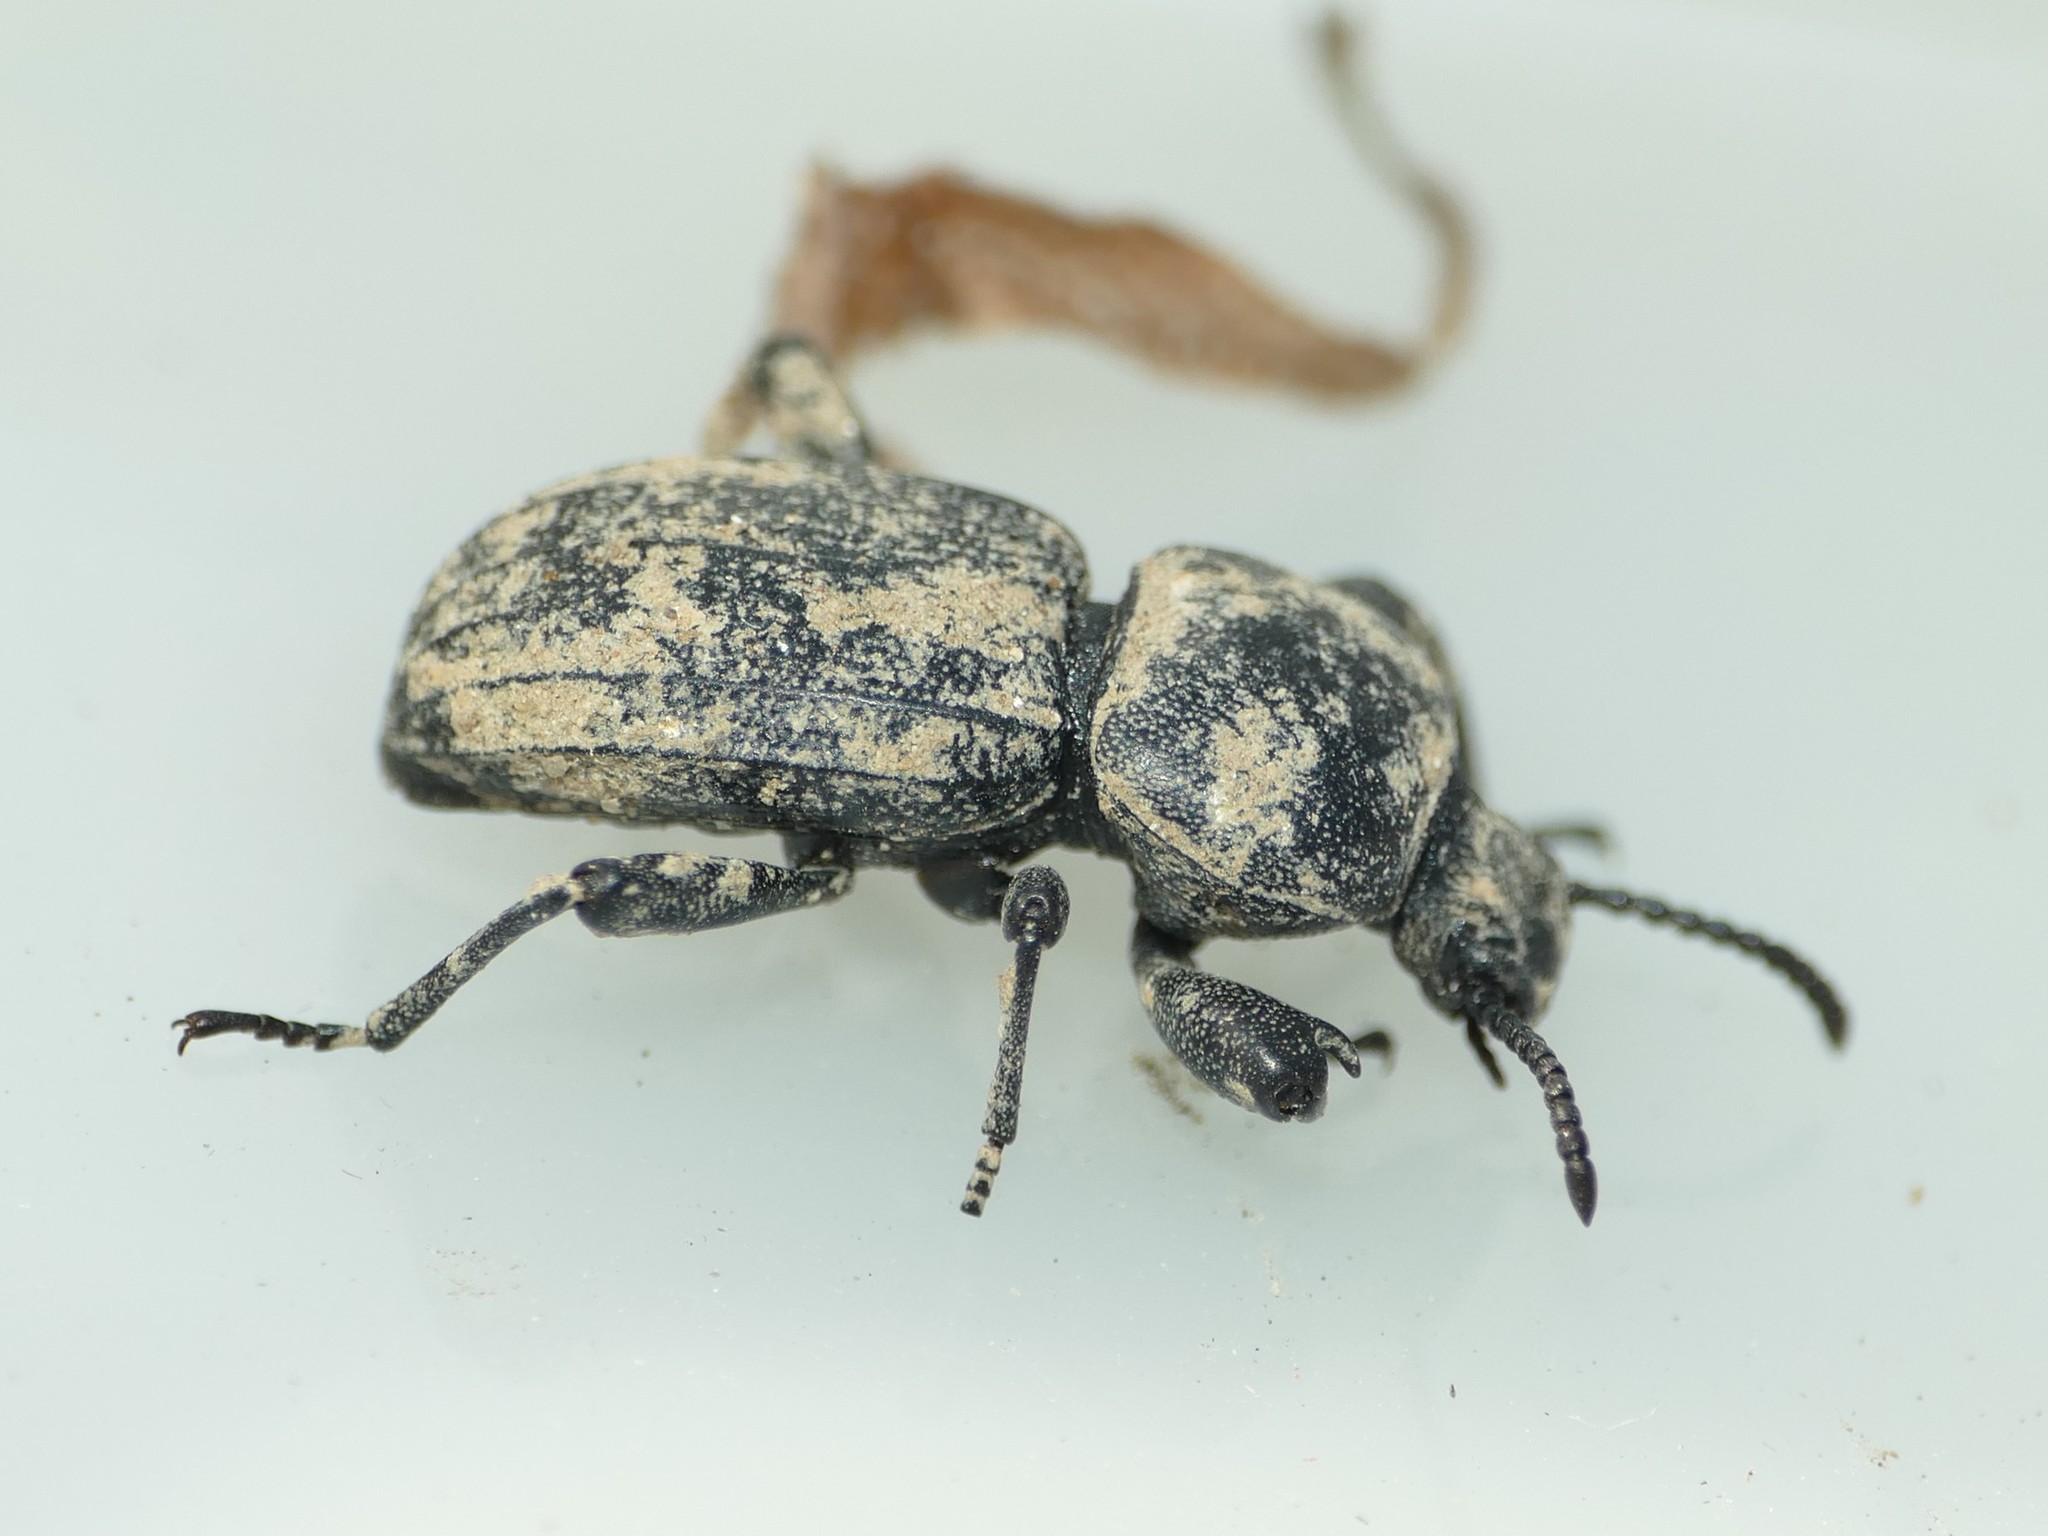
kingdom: Animalia
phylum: Arthropoda
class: Insecta
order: Coleoptera
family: Tenebrionidae
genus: Scaurus
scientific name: Scaurus uncinus
